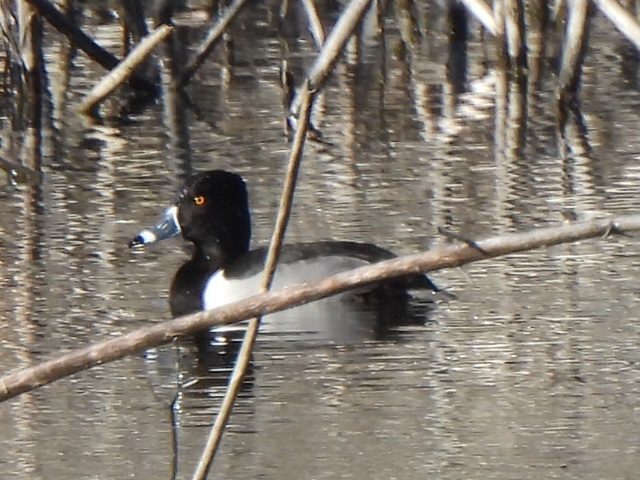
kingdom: Animalia
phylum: Chordata
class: Aves
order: Anseriformes
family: Anatidae
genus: Aythya
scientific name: Aythya collaris
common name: Ring-necked duck
